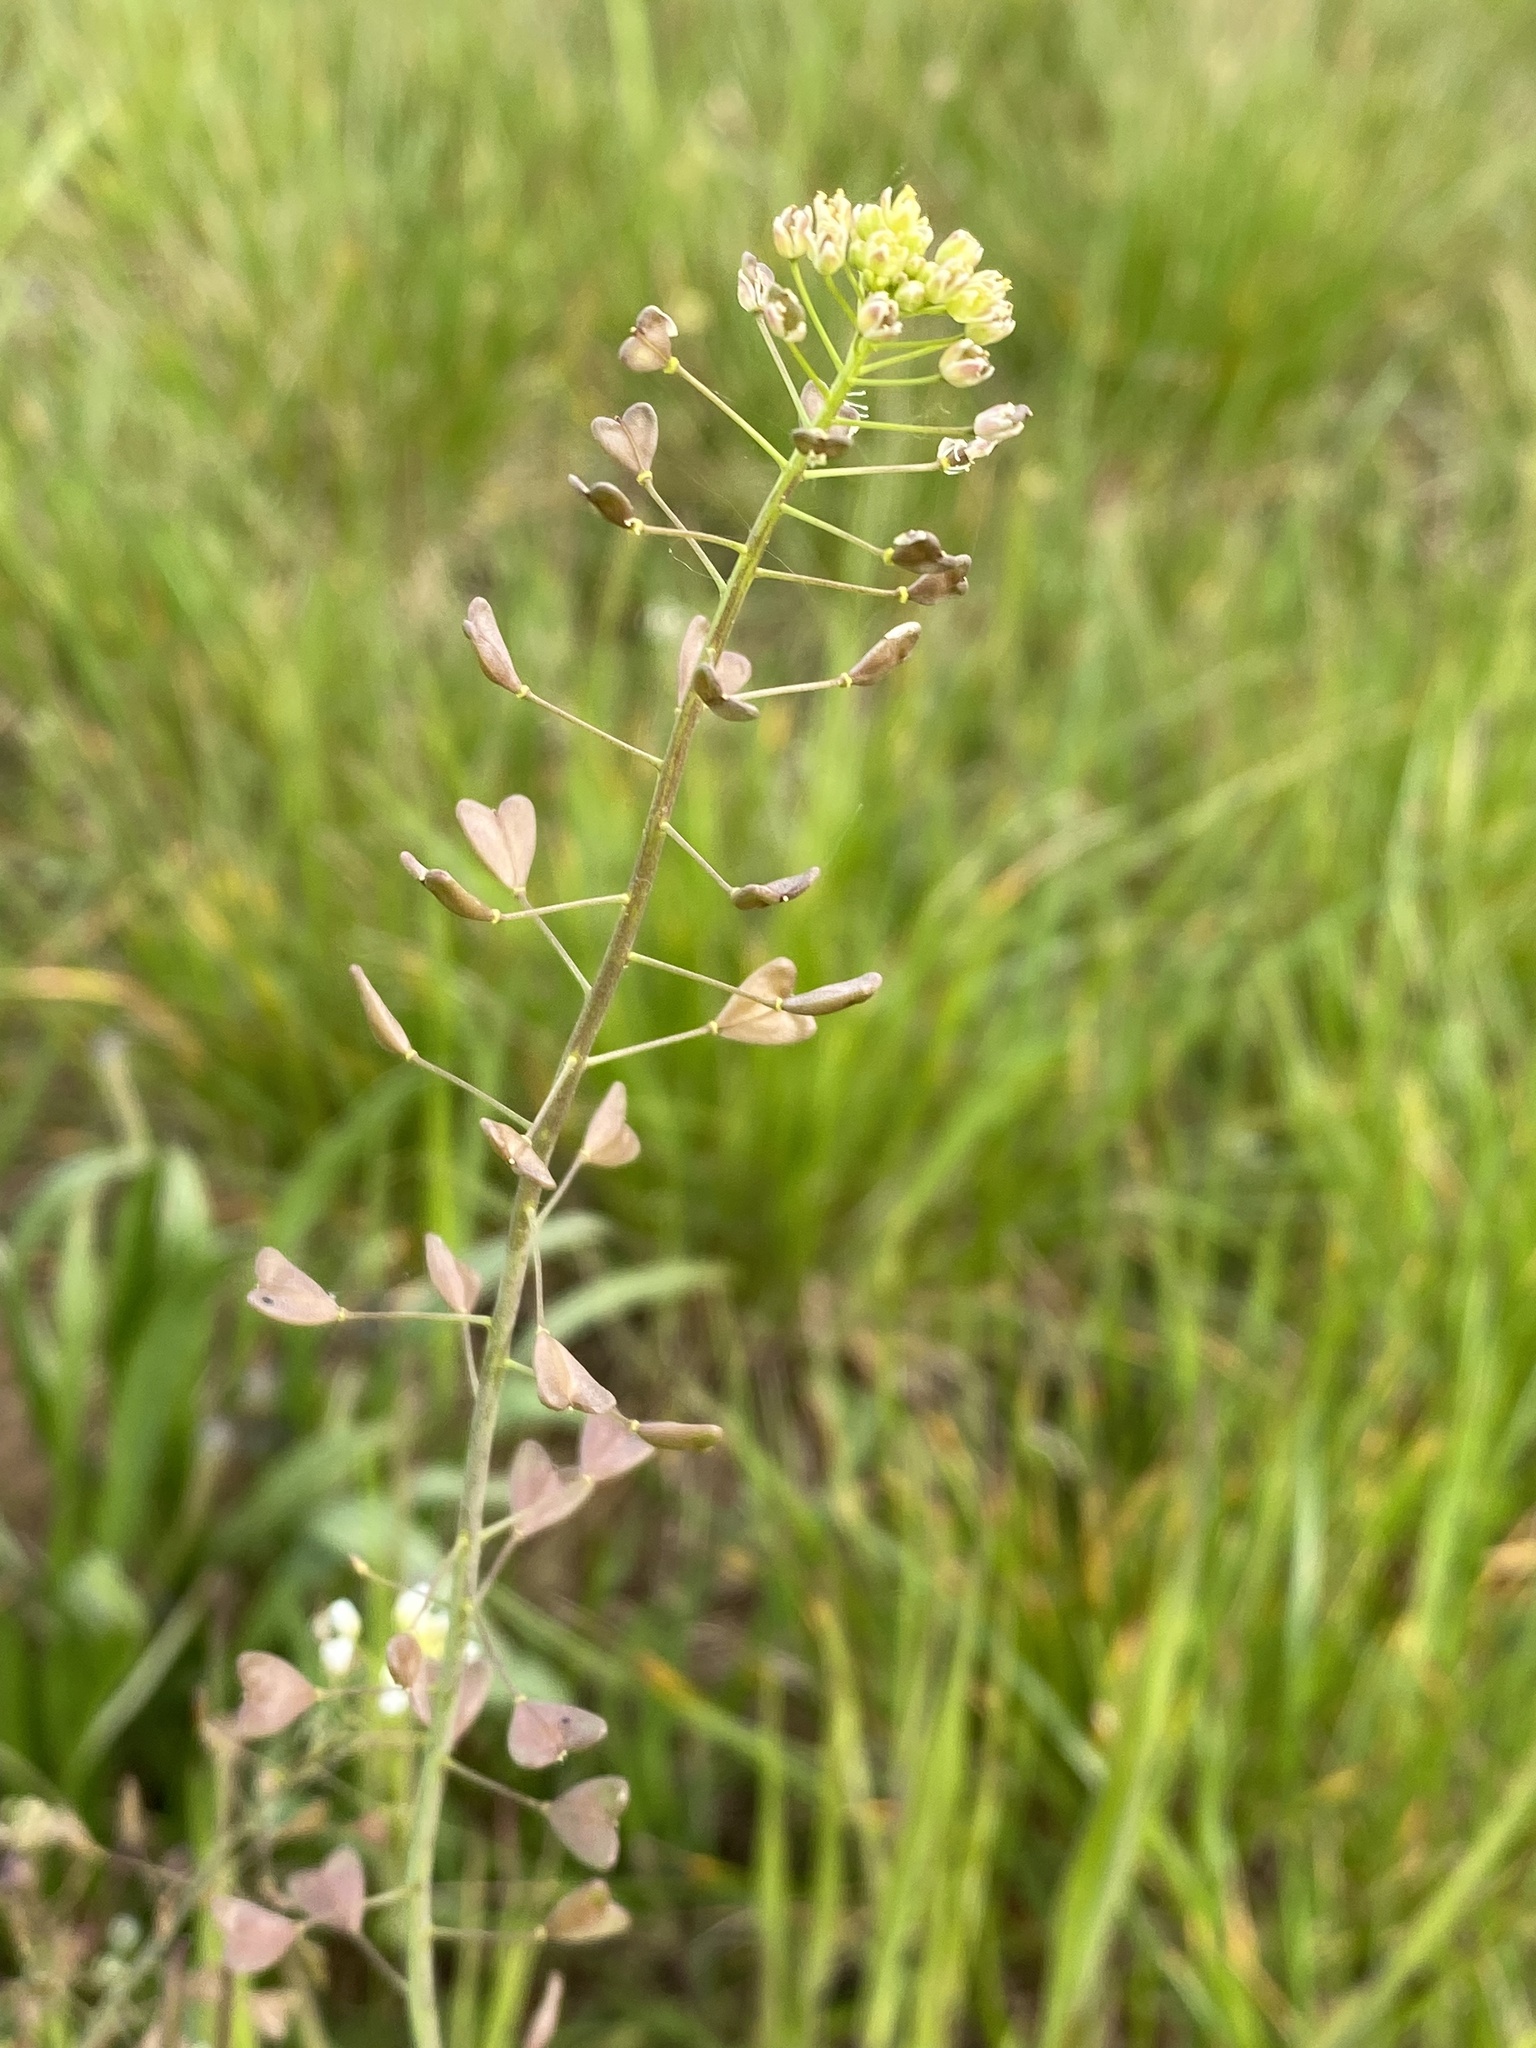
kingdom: Plantae
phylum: Tracheophyta
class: Magnoliopsida
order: Brassicales
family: Brassicaceae
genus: Capsella
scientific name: Capsella bursa-pastoris
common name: Shepherd's purse
